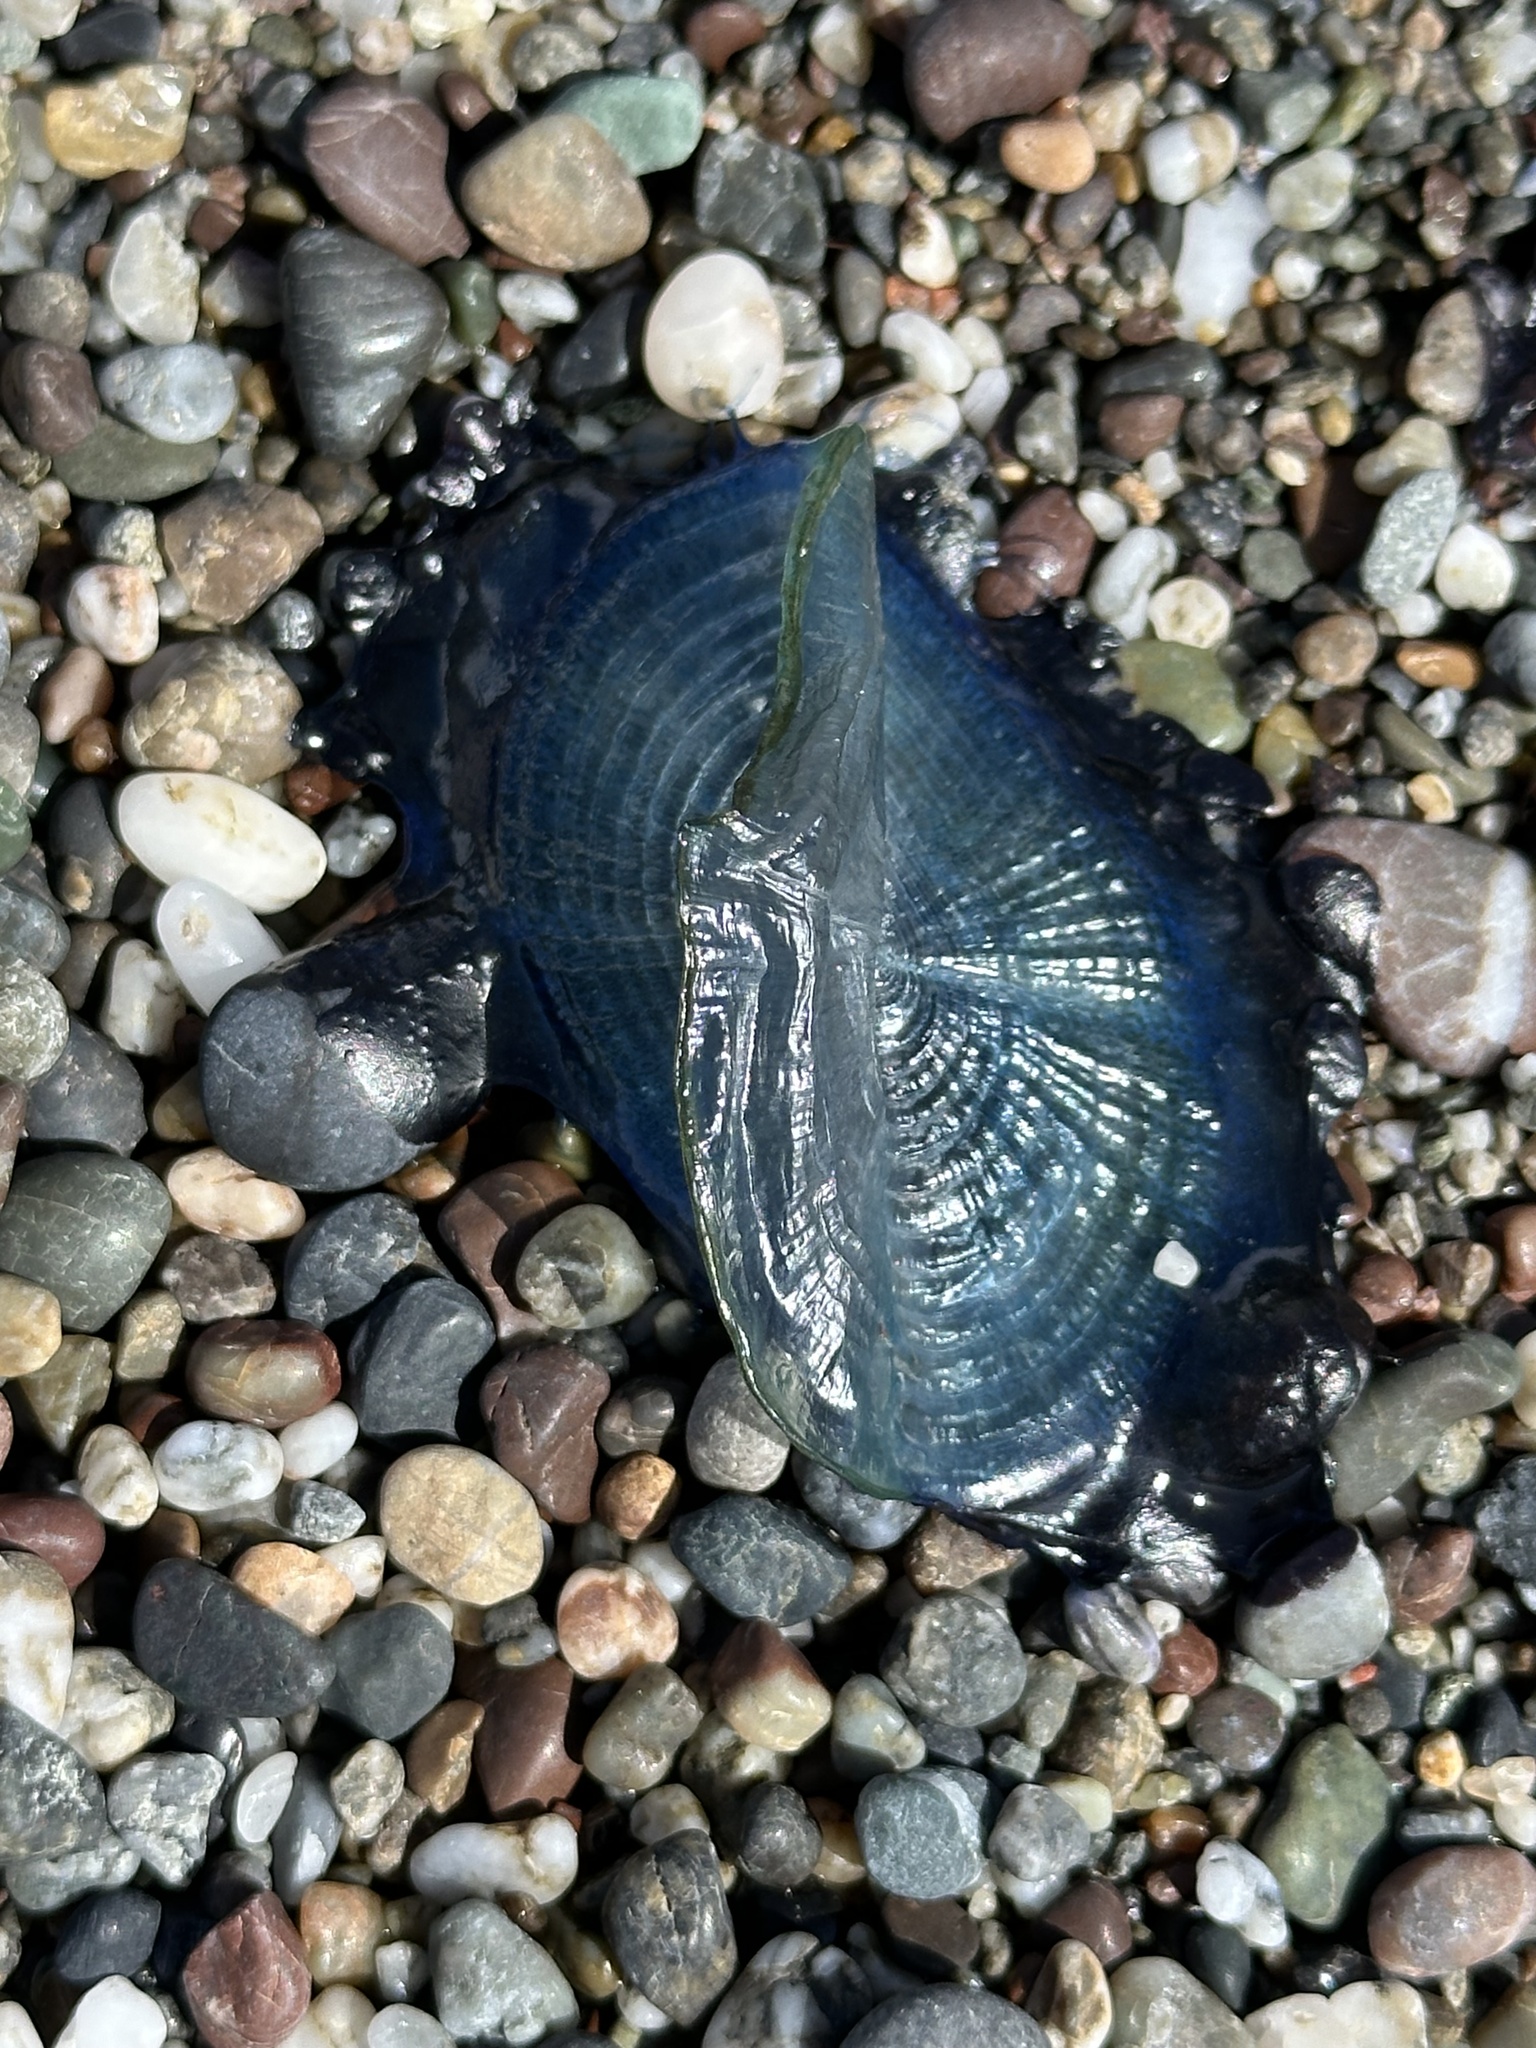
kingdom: Animalia
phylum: Cnidaria
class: Hydrozoa
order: Anthoathecata
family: Porpitidae
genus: Velella
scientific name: Velella velella
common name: By-the-wind-sailor
